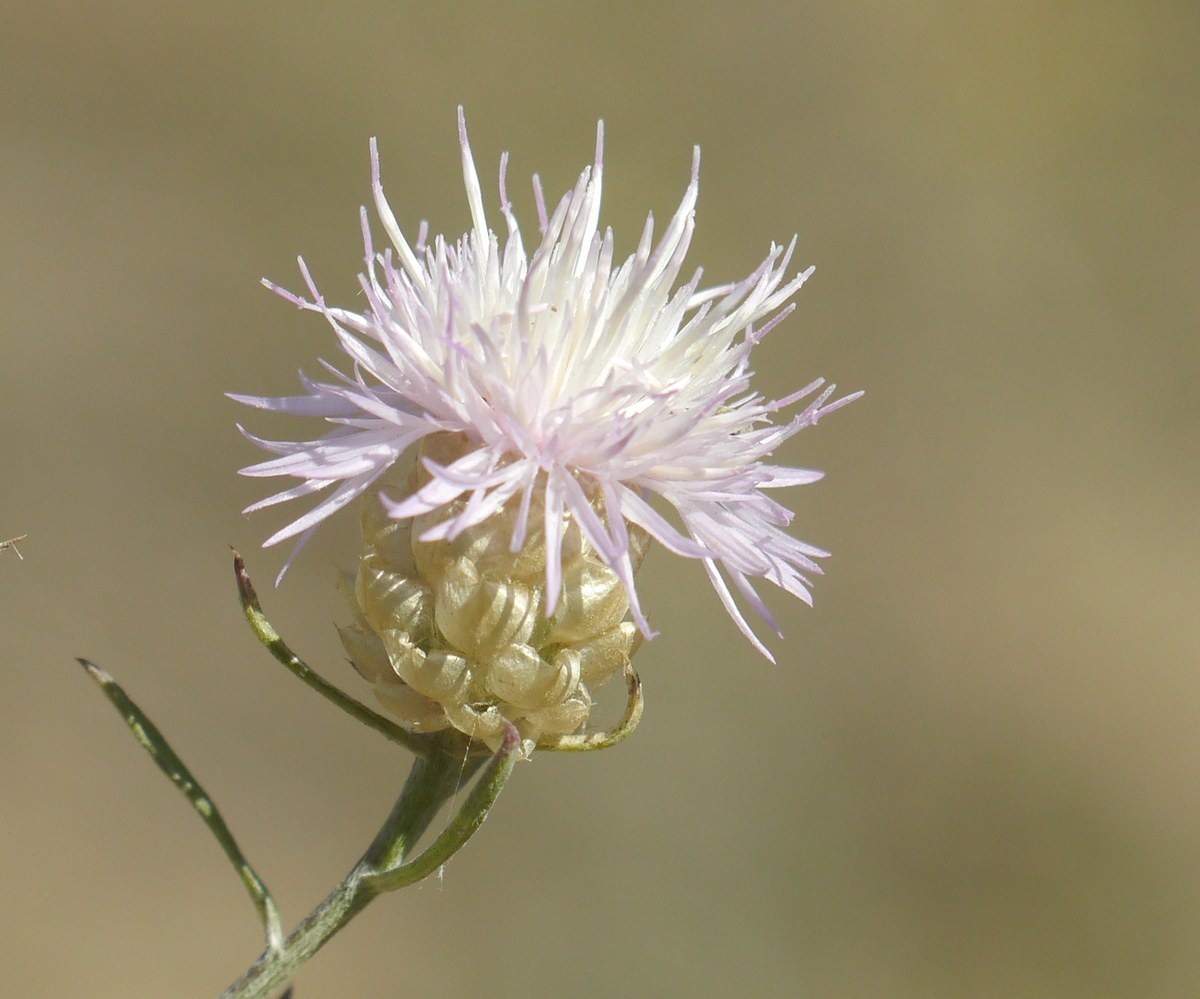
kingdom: Plantae
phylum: Tracheophyta
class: Magnoliopsida
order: Asterales
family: Asteraceae
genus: Centaurea
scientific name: Centaurea protomargaritacea
